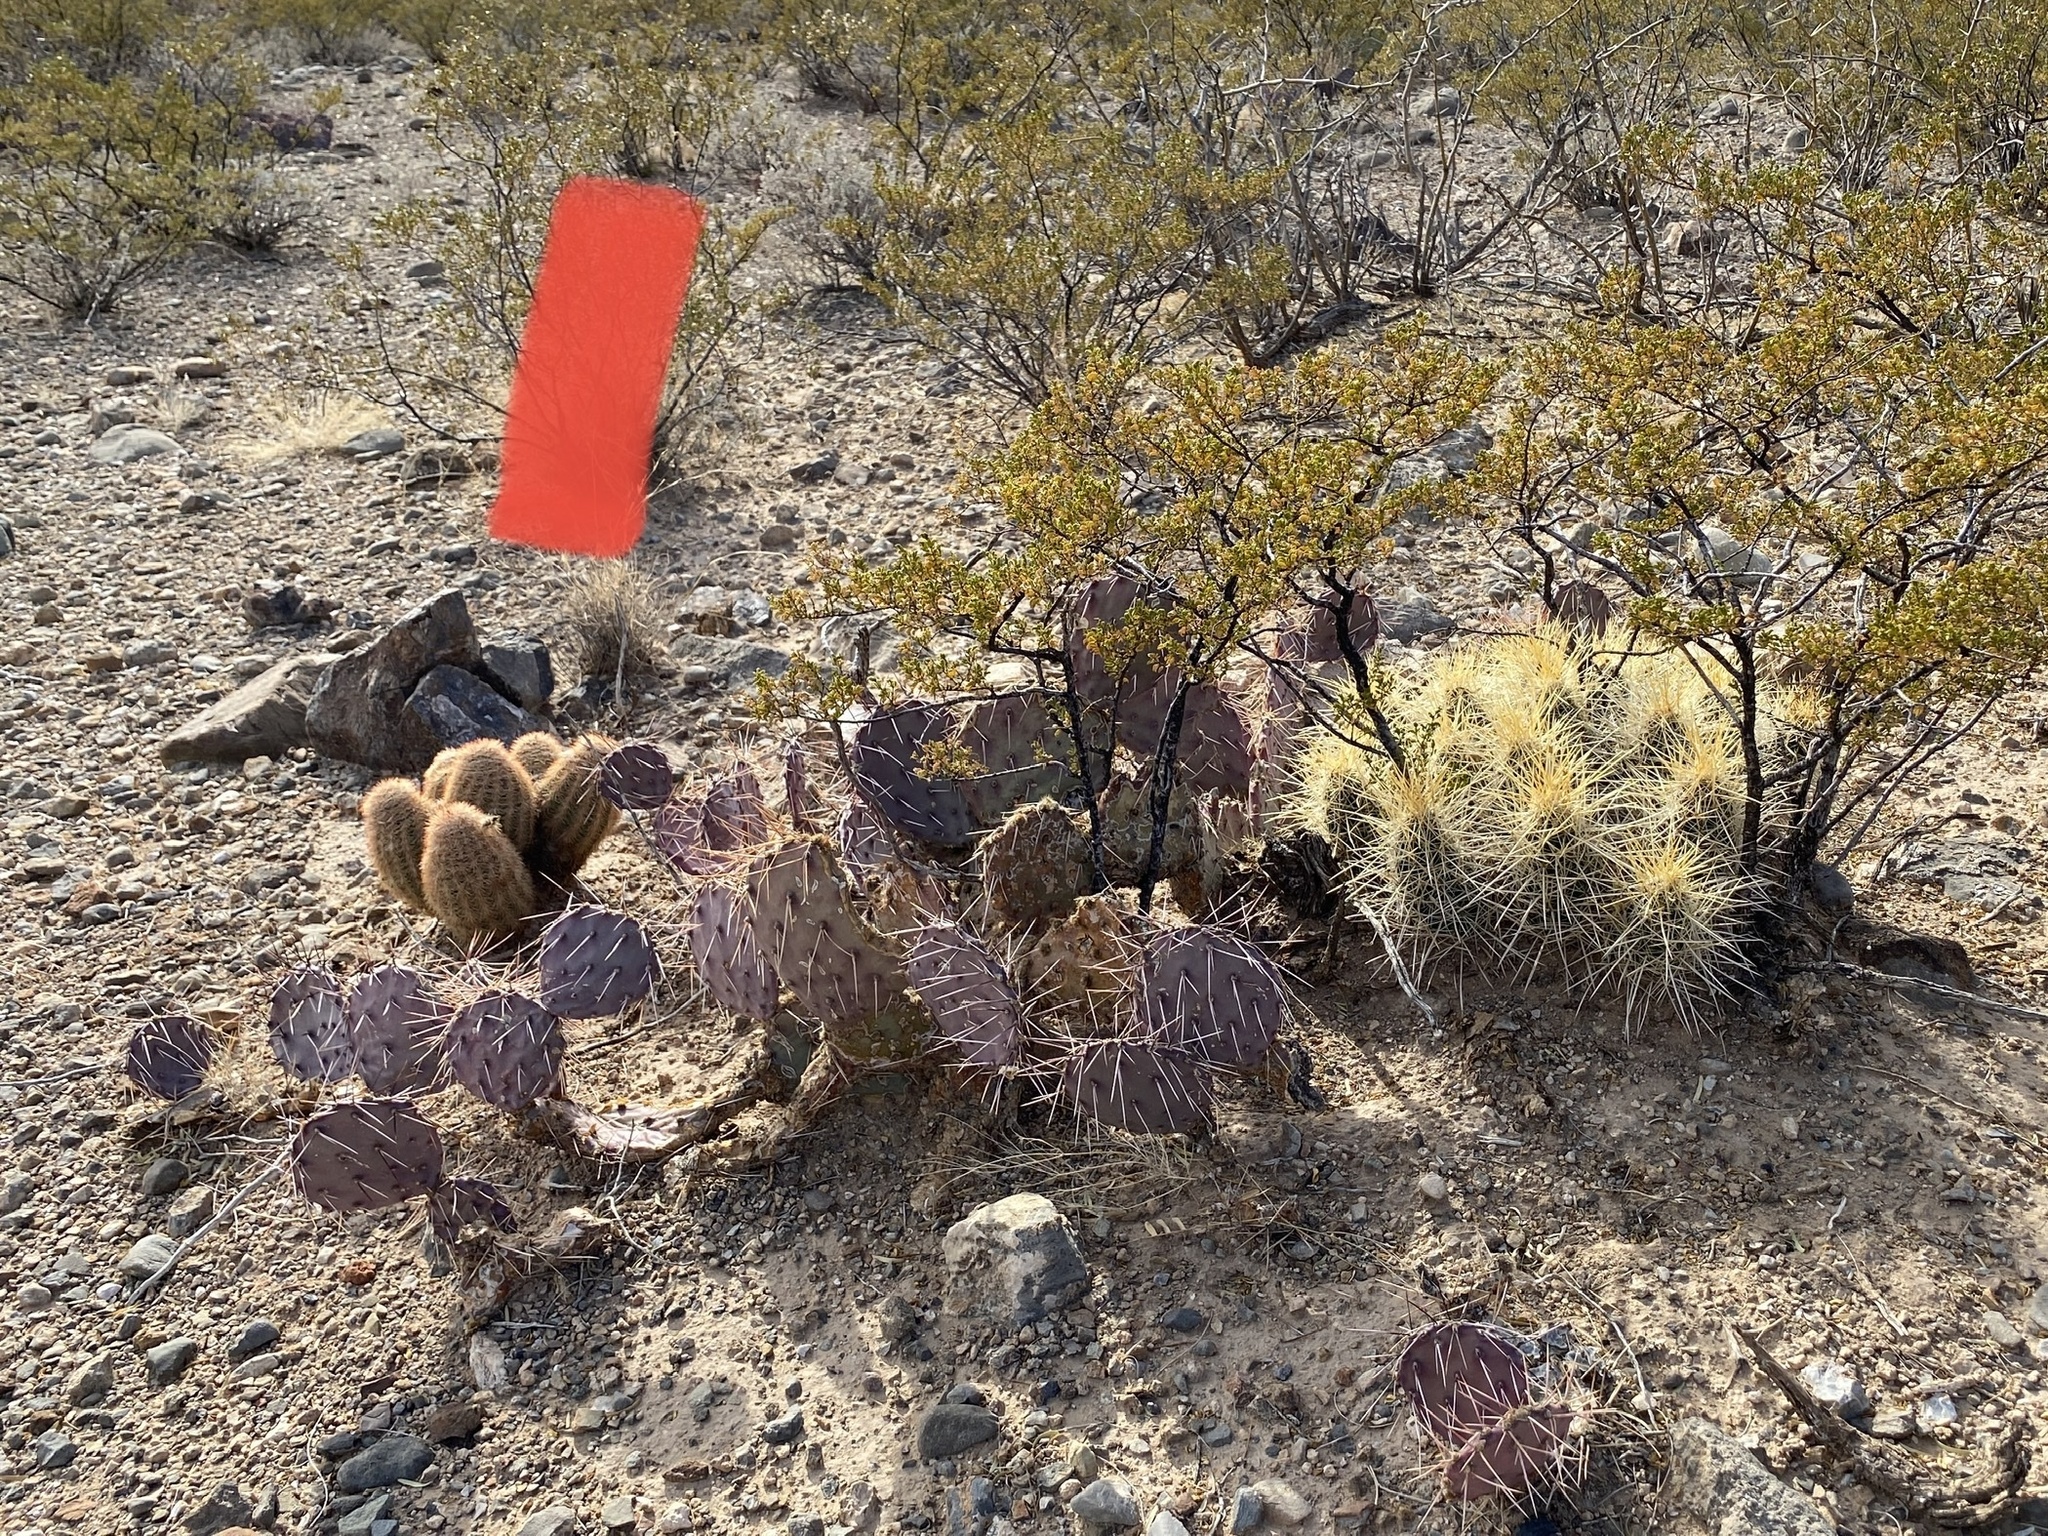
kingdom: Plantae
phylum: Tracheophyta
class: Magnoliopsida
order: Caryophyllales
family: Cactaceae
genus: Echinocereus
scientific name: Echinocereus dasyacanthus
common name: Spiny hedgehog cactus
